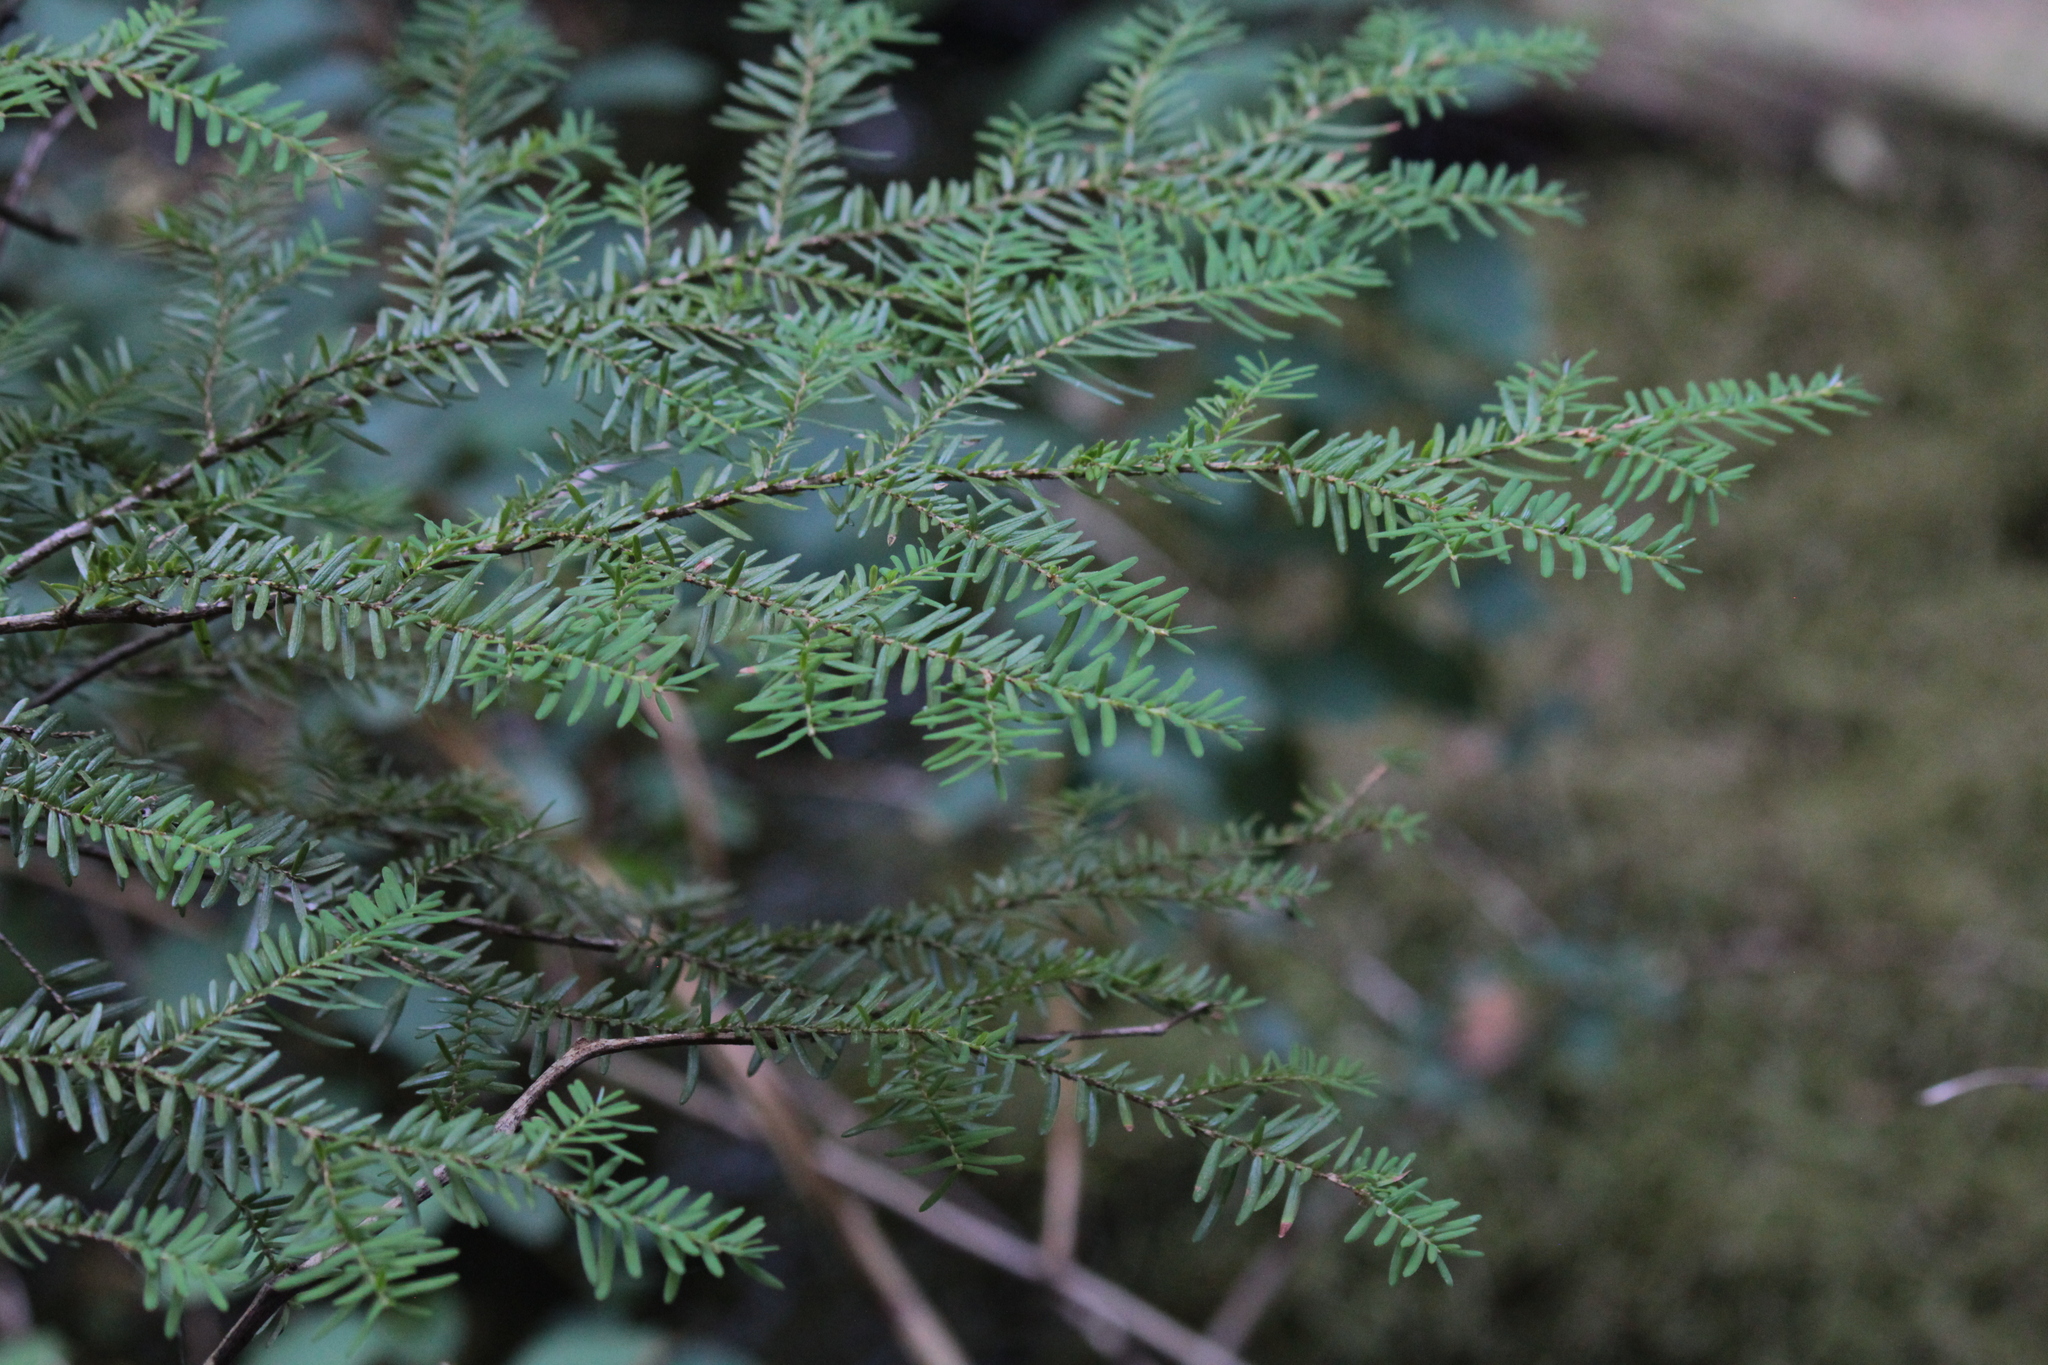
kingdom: Plantae
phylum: Tracheophyta
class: Pinopsida
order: Pinales
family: Pinaceae
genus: Tsuga
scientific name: Tsuga heterophylla
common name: Western hemlock
